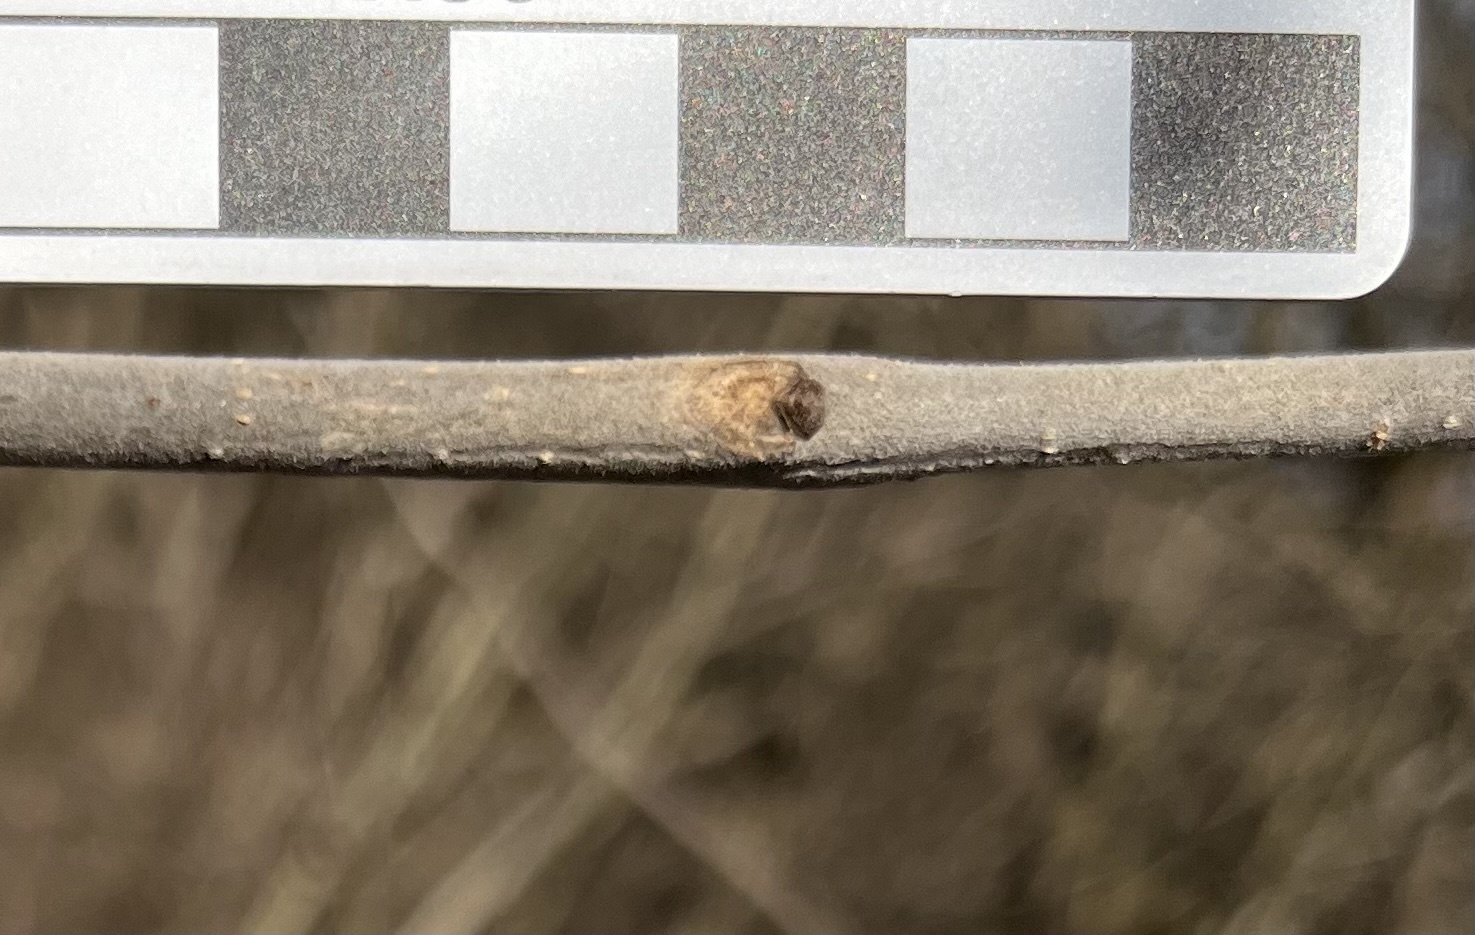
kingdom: Plantae
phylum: Tracheophyta
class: Magnoliopsida
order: Lamiales
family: Oleaceae
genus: Fraxinus
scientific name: Fraxinus pennsylvanica
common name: Green ash
